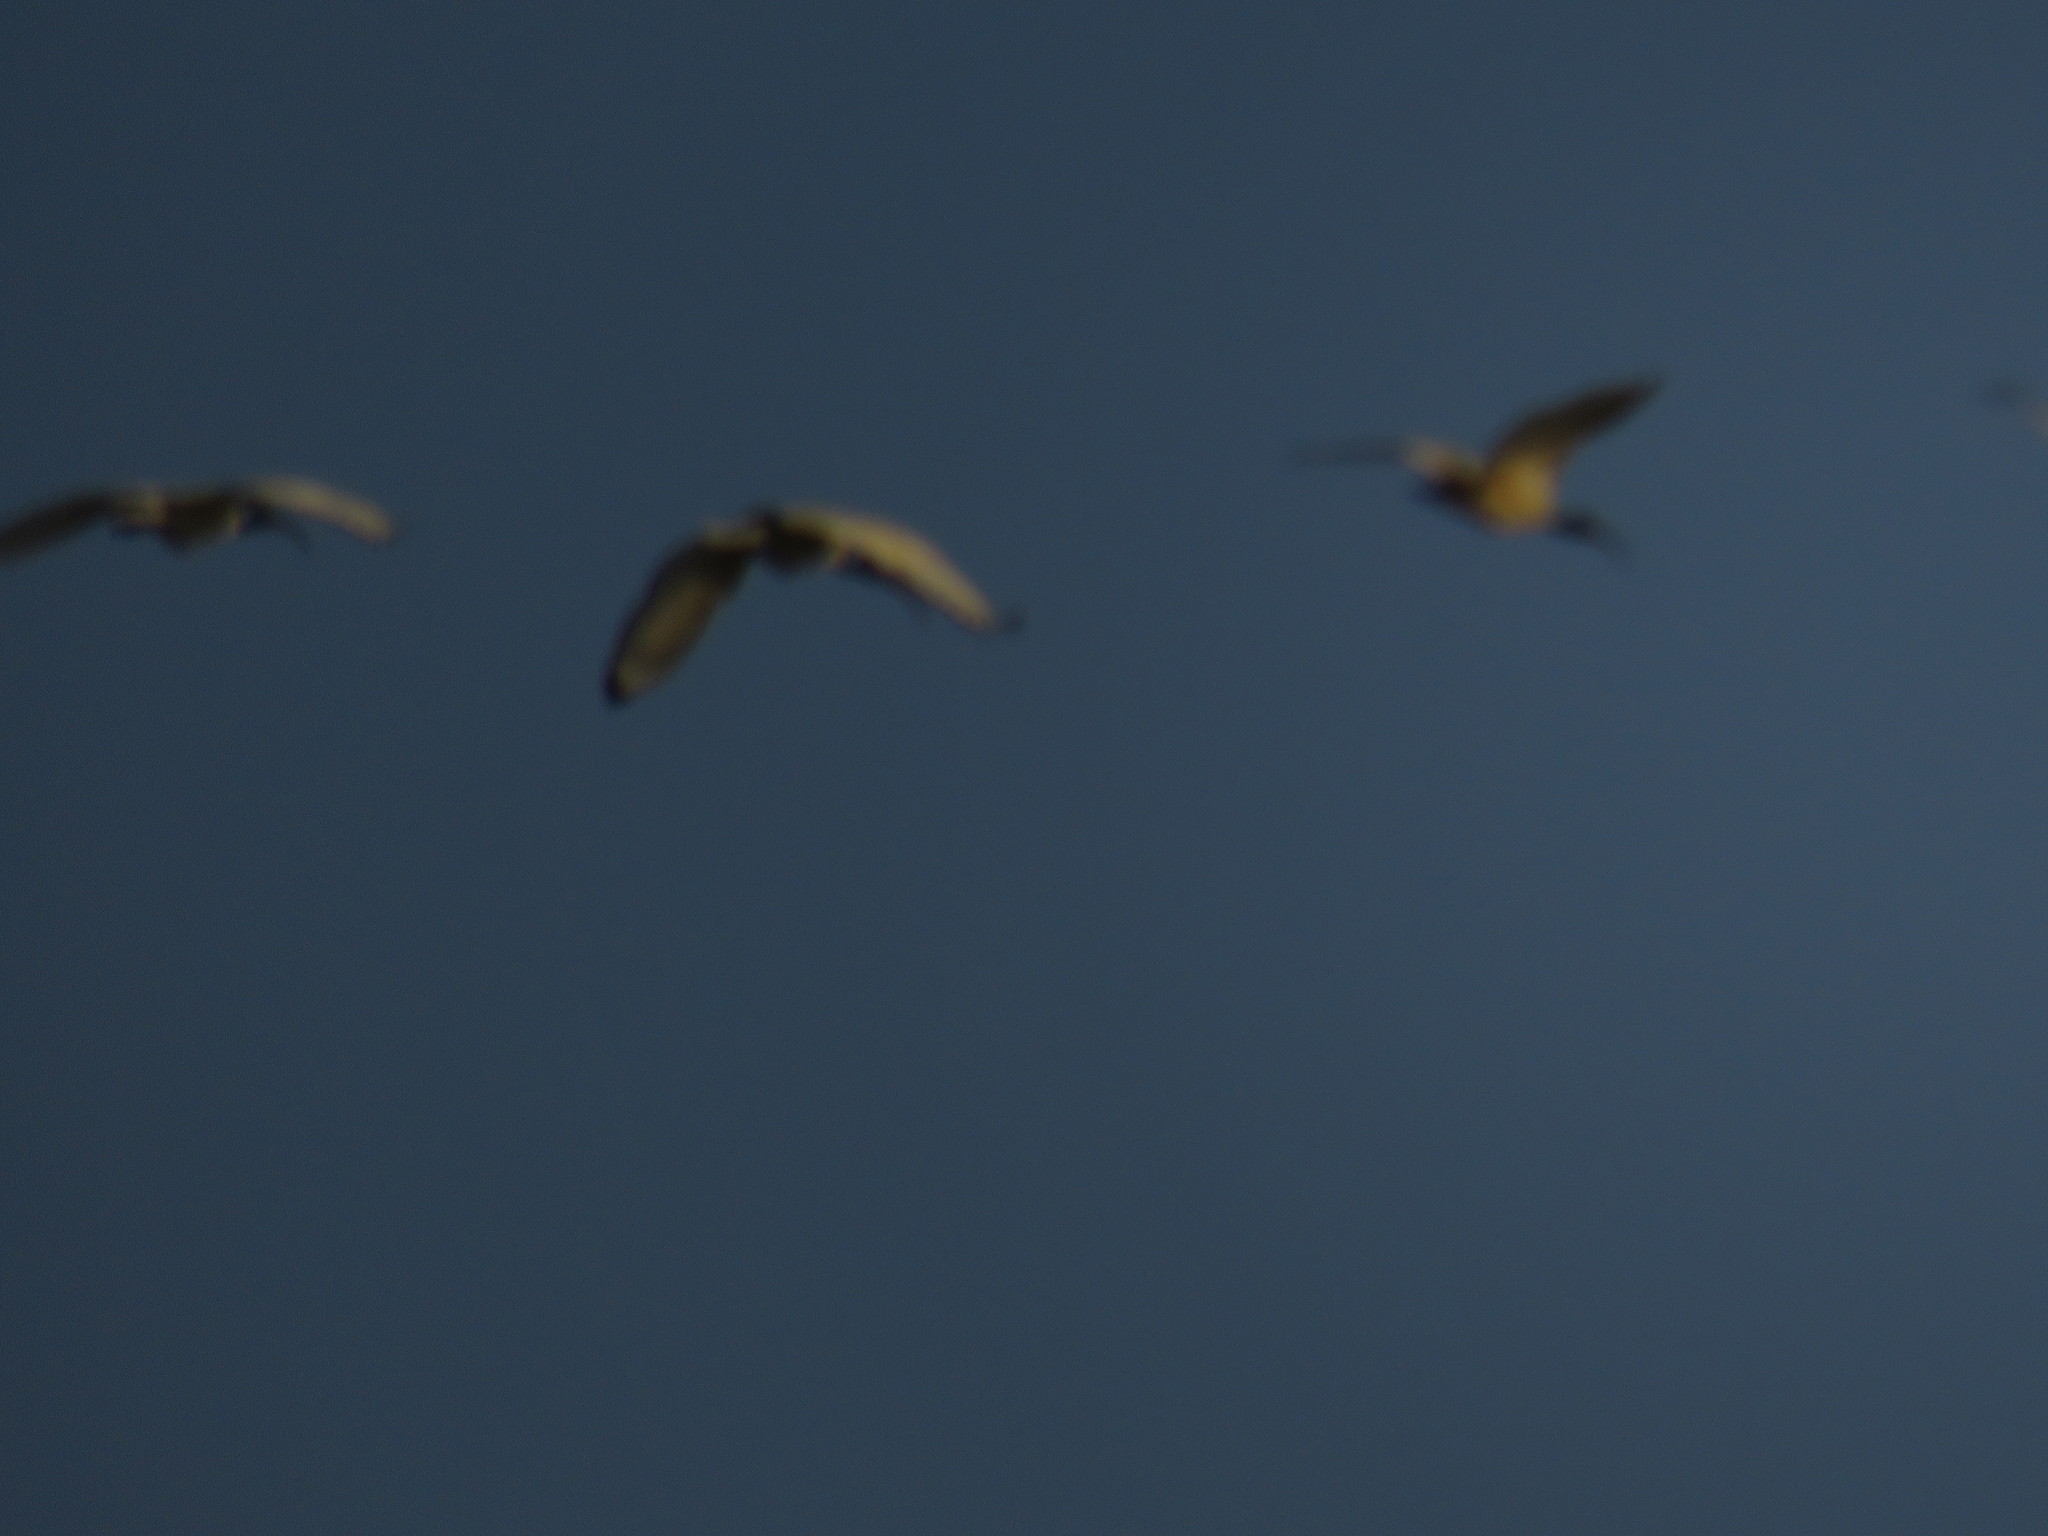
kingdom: Animalia
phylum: Chordata
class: Aves
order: Pelecaniformes
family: Threskiornithidae
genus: Threskiornis
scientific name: Threskiornis aethiopicus
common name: Sacred ibis
